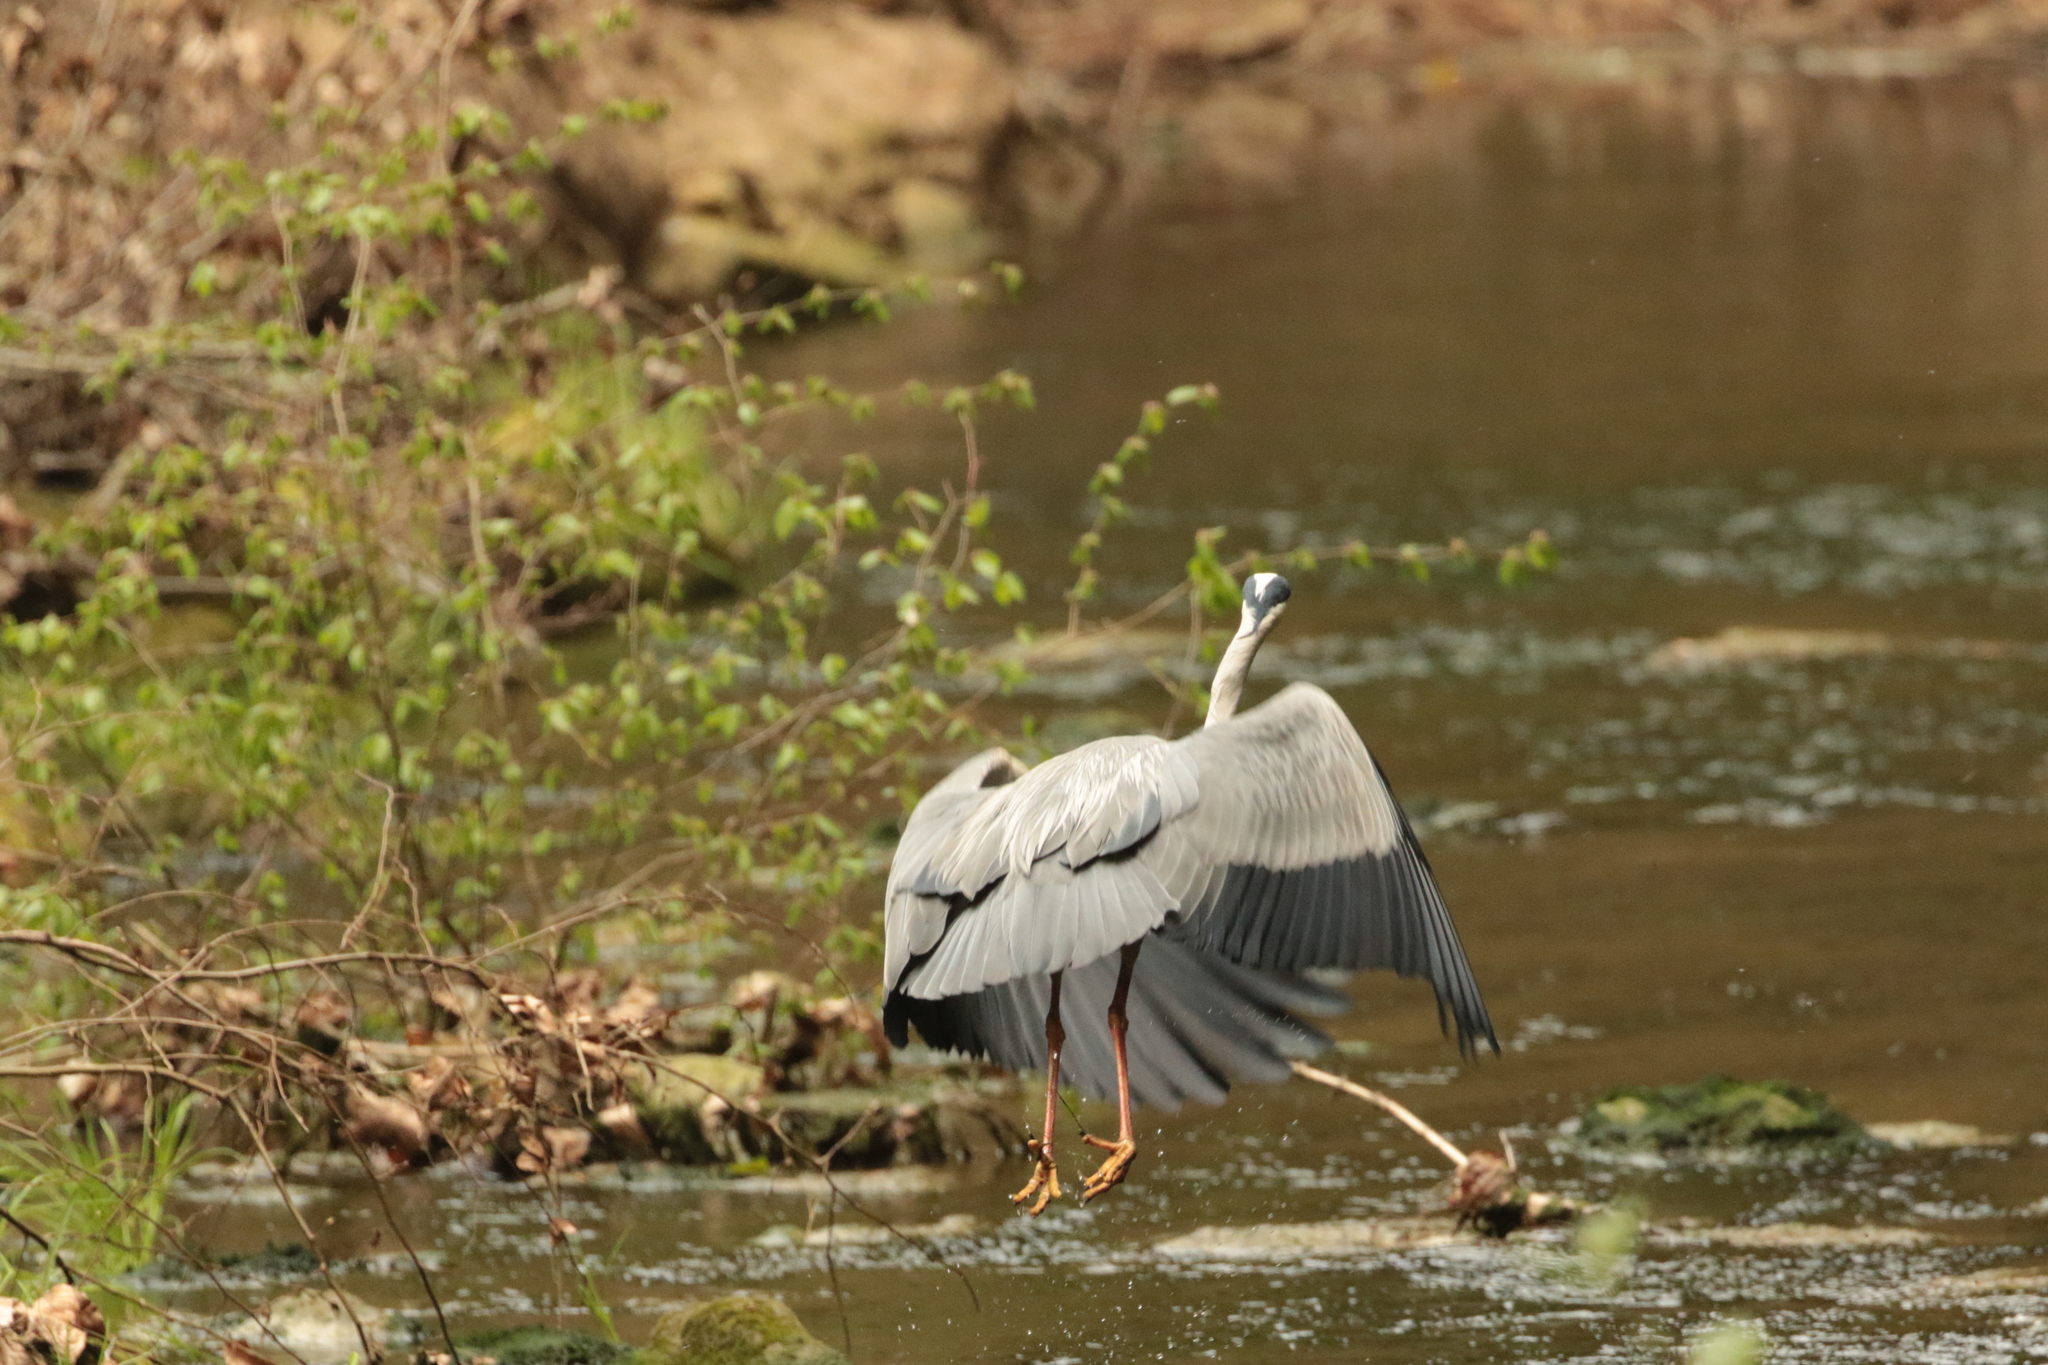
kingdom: Animalia
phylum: Chordata
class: Aves
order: Pelecaniformes
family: Ardeidae
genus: Ardea
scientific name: Ardea cinerea
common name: Grey heron
